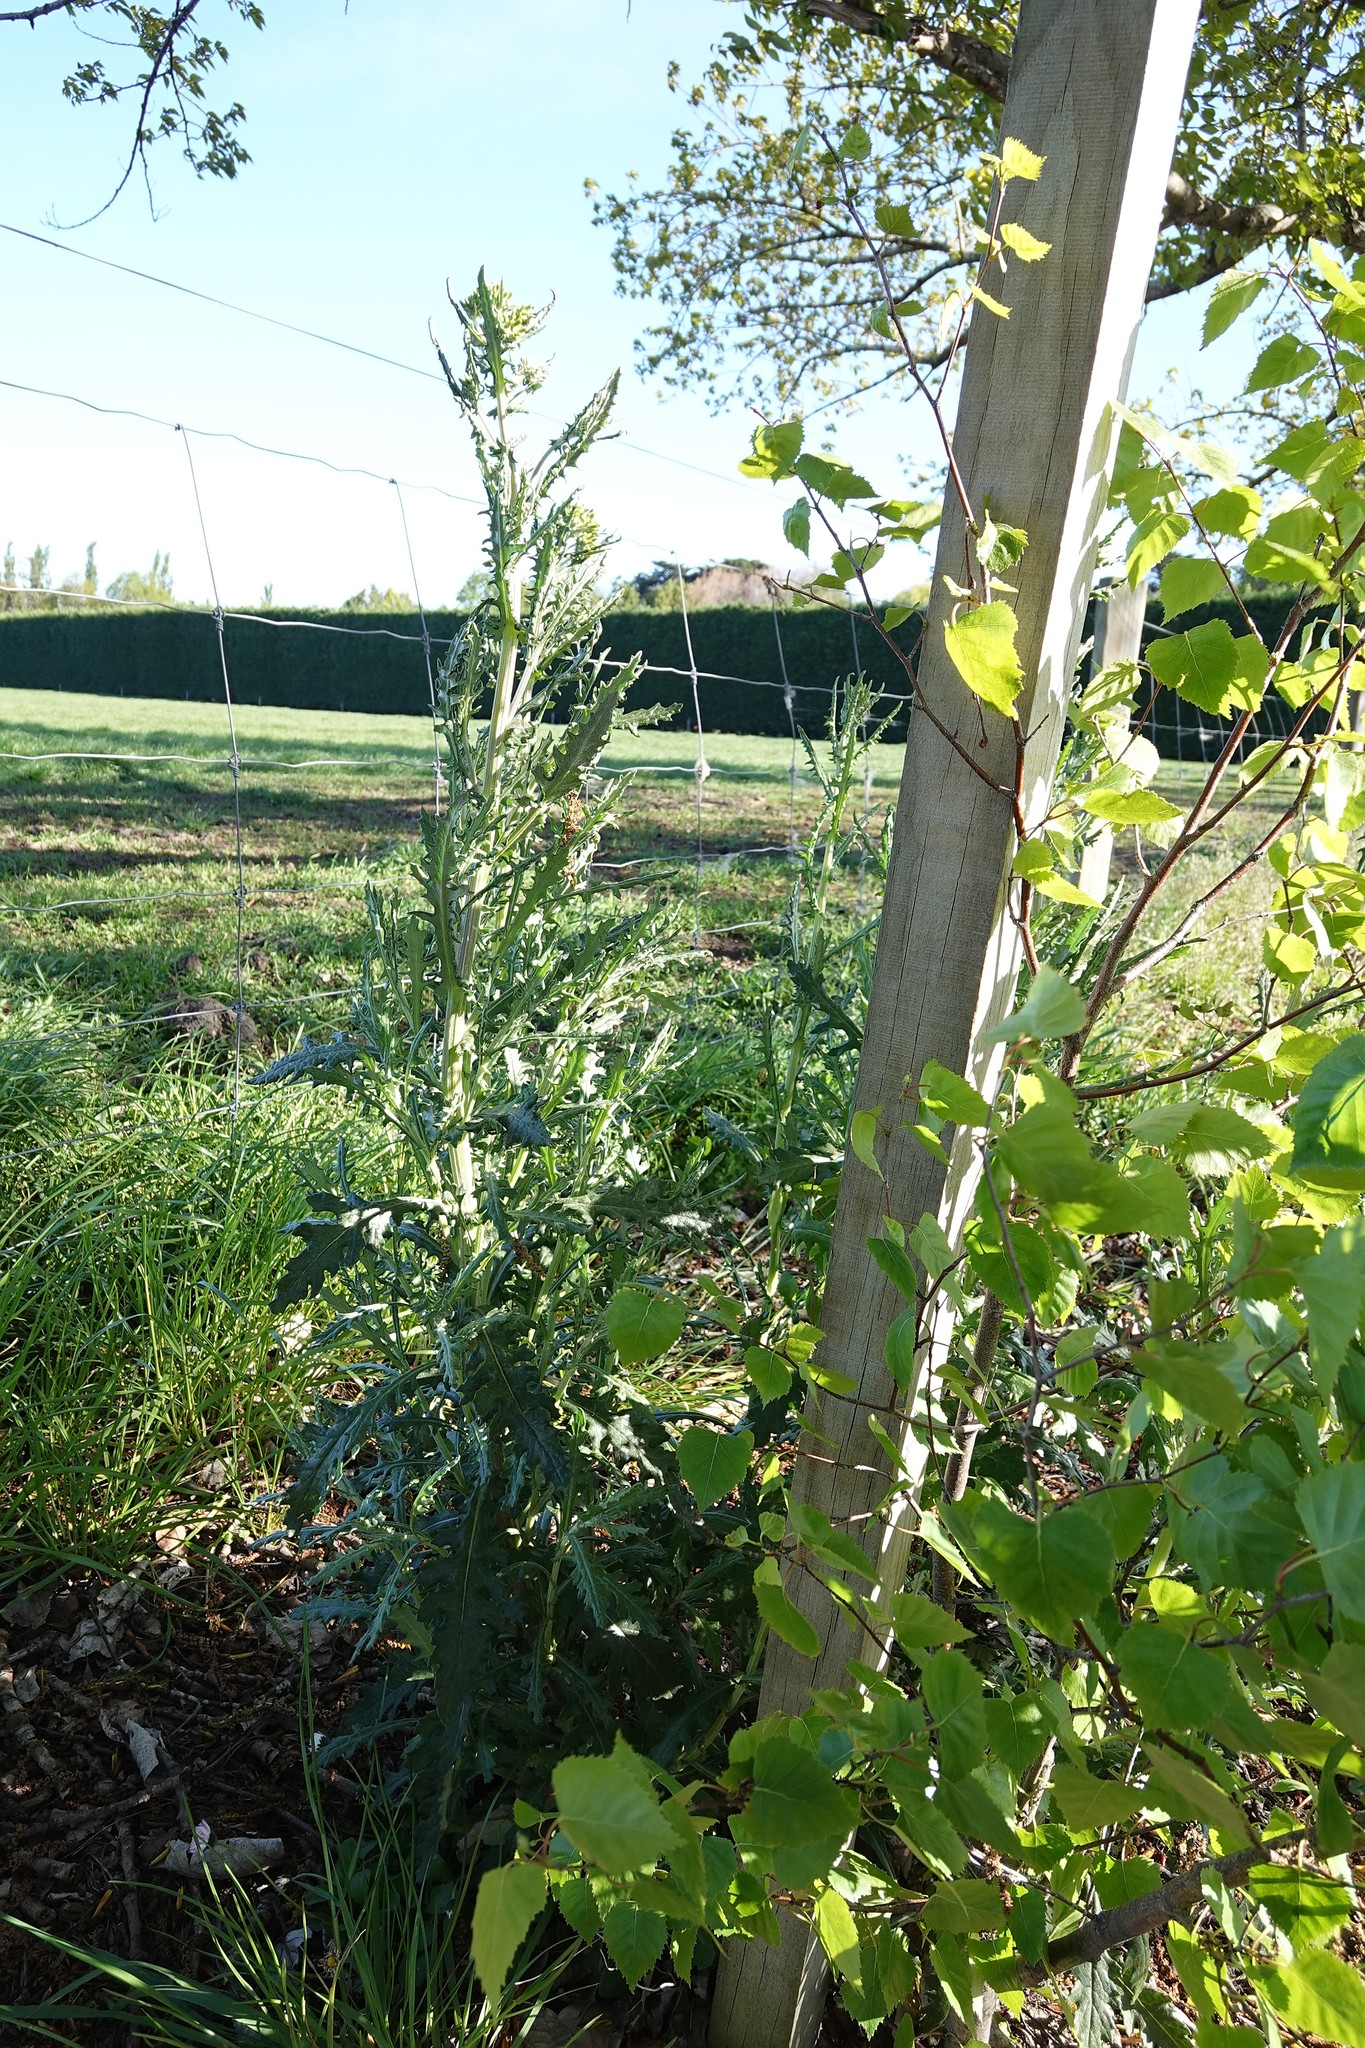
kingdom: Plantae
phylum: Tracheophyta
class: Magnoliopsida
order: Asterales
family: Asteraceae
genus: Senecio
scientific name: Senecio glomeratus
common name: Cutleaf burnweed
